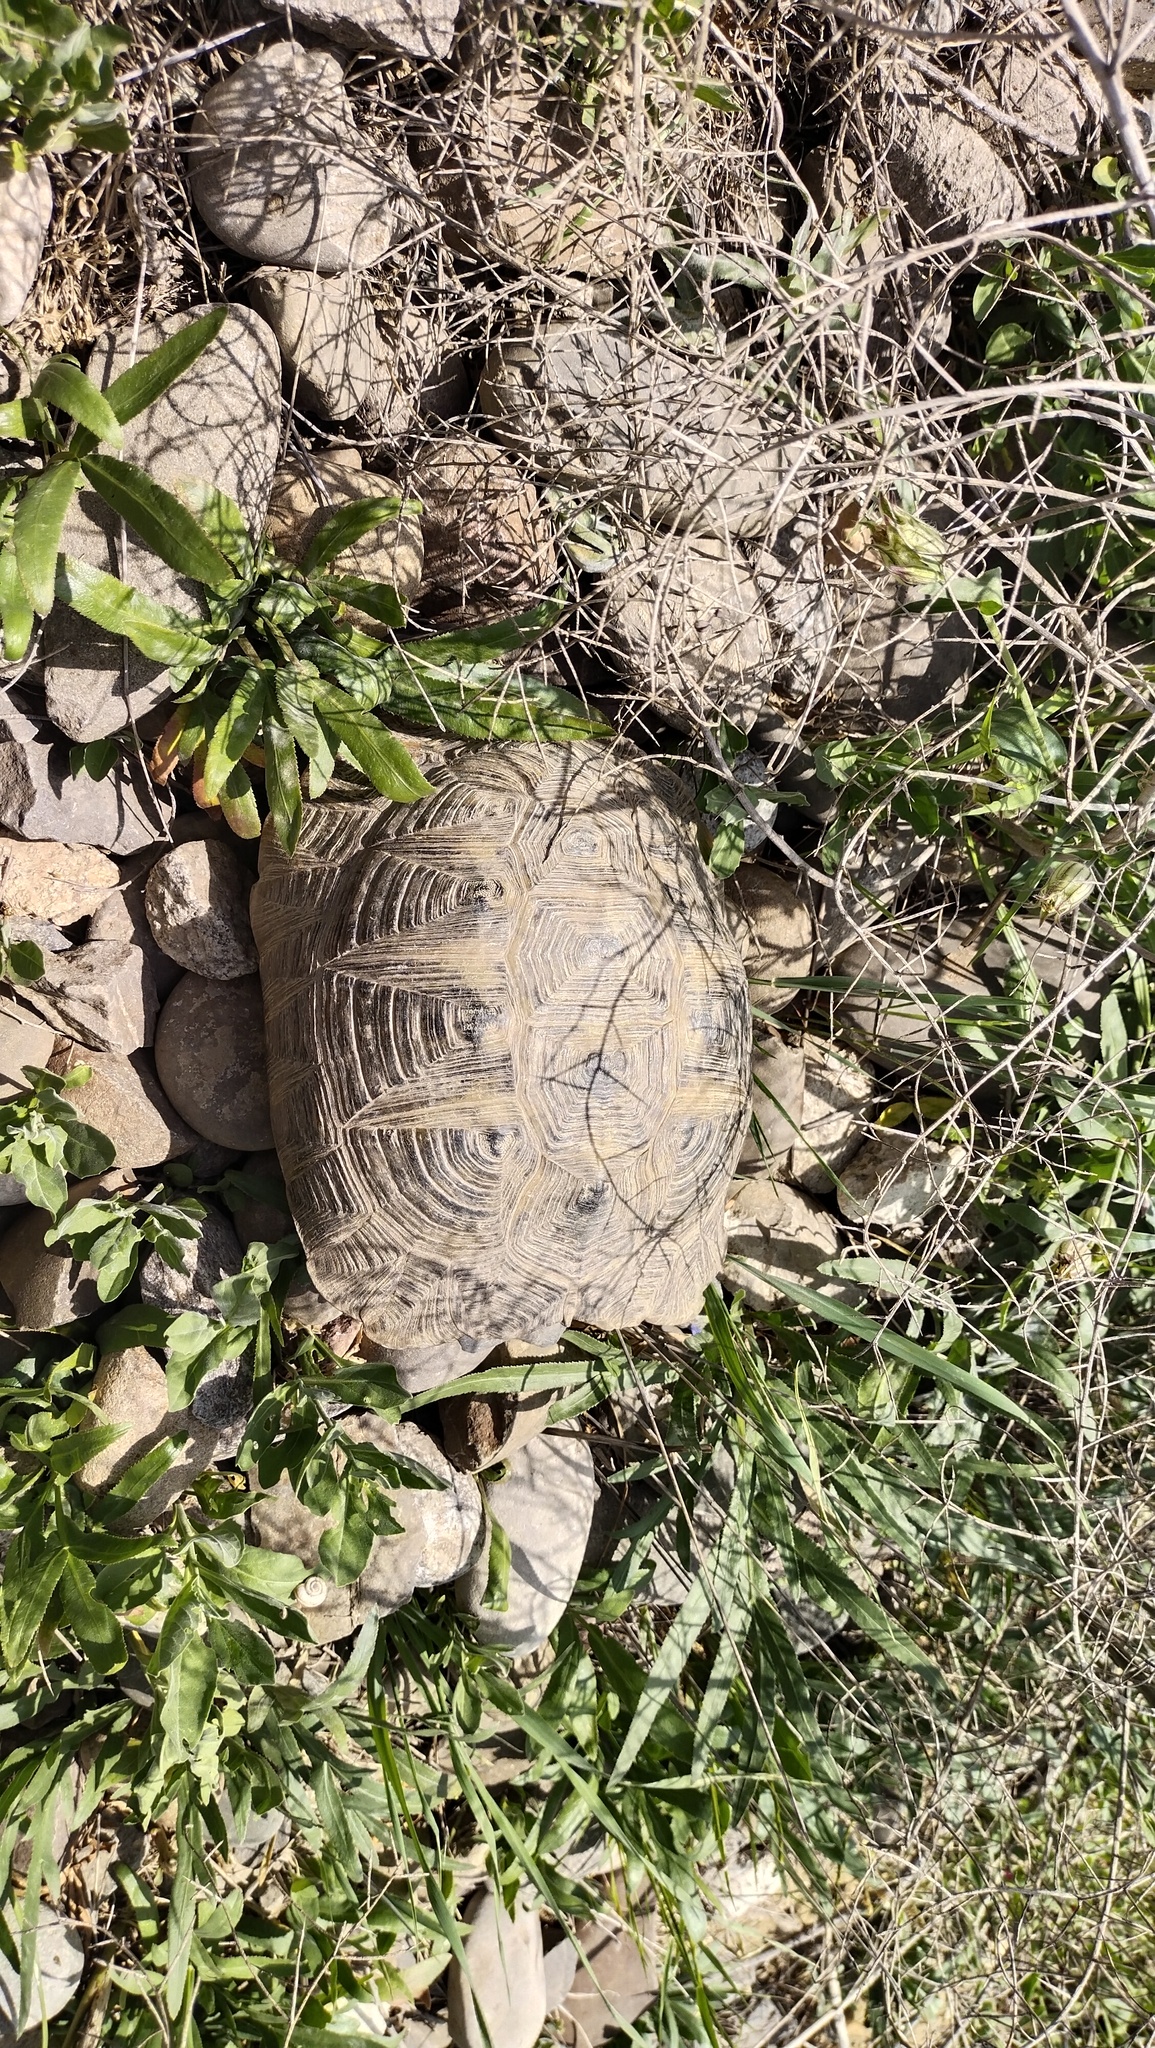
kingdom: Animalia
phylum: Chordata
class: Testudines
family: Testudinidae
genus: Testudo
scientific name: Testudo graeca
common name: Common tortoise
